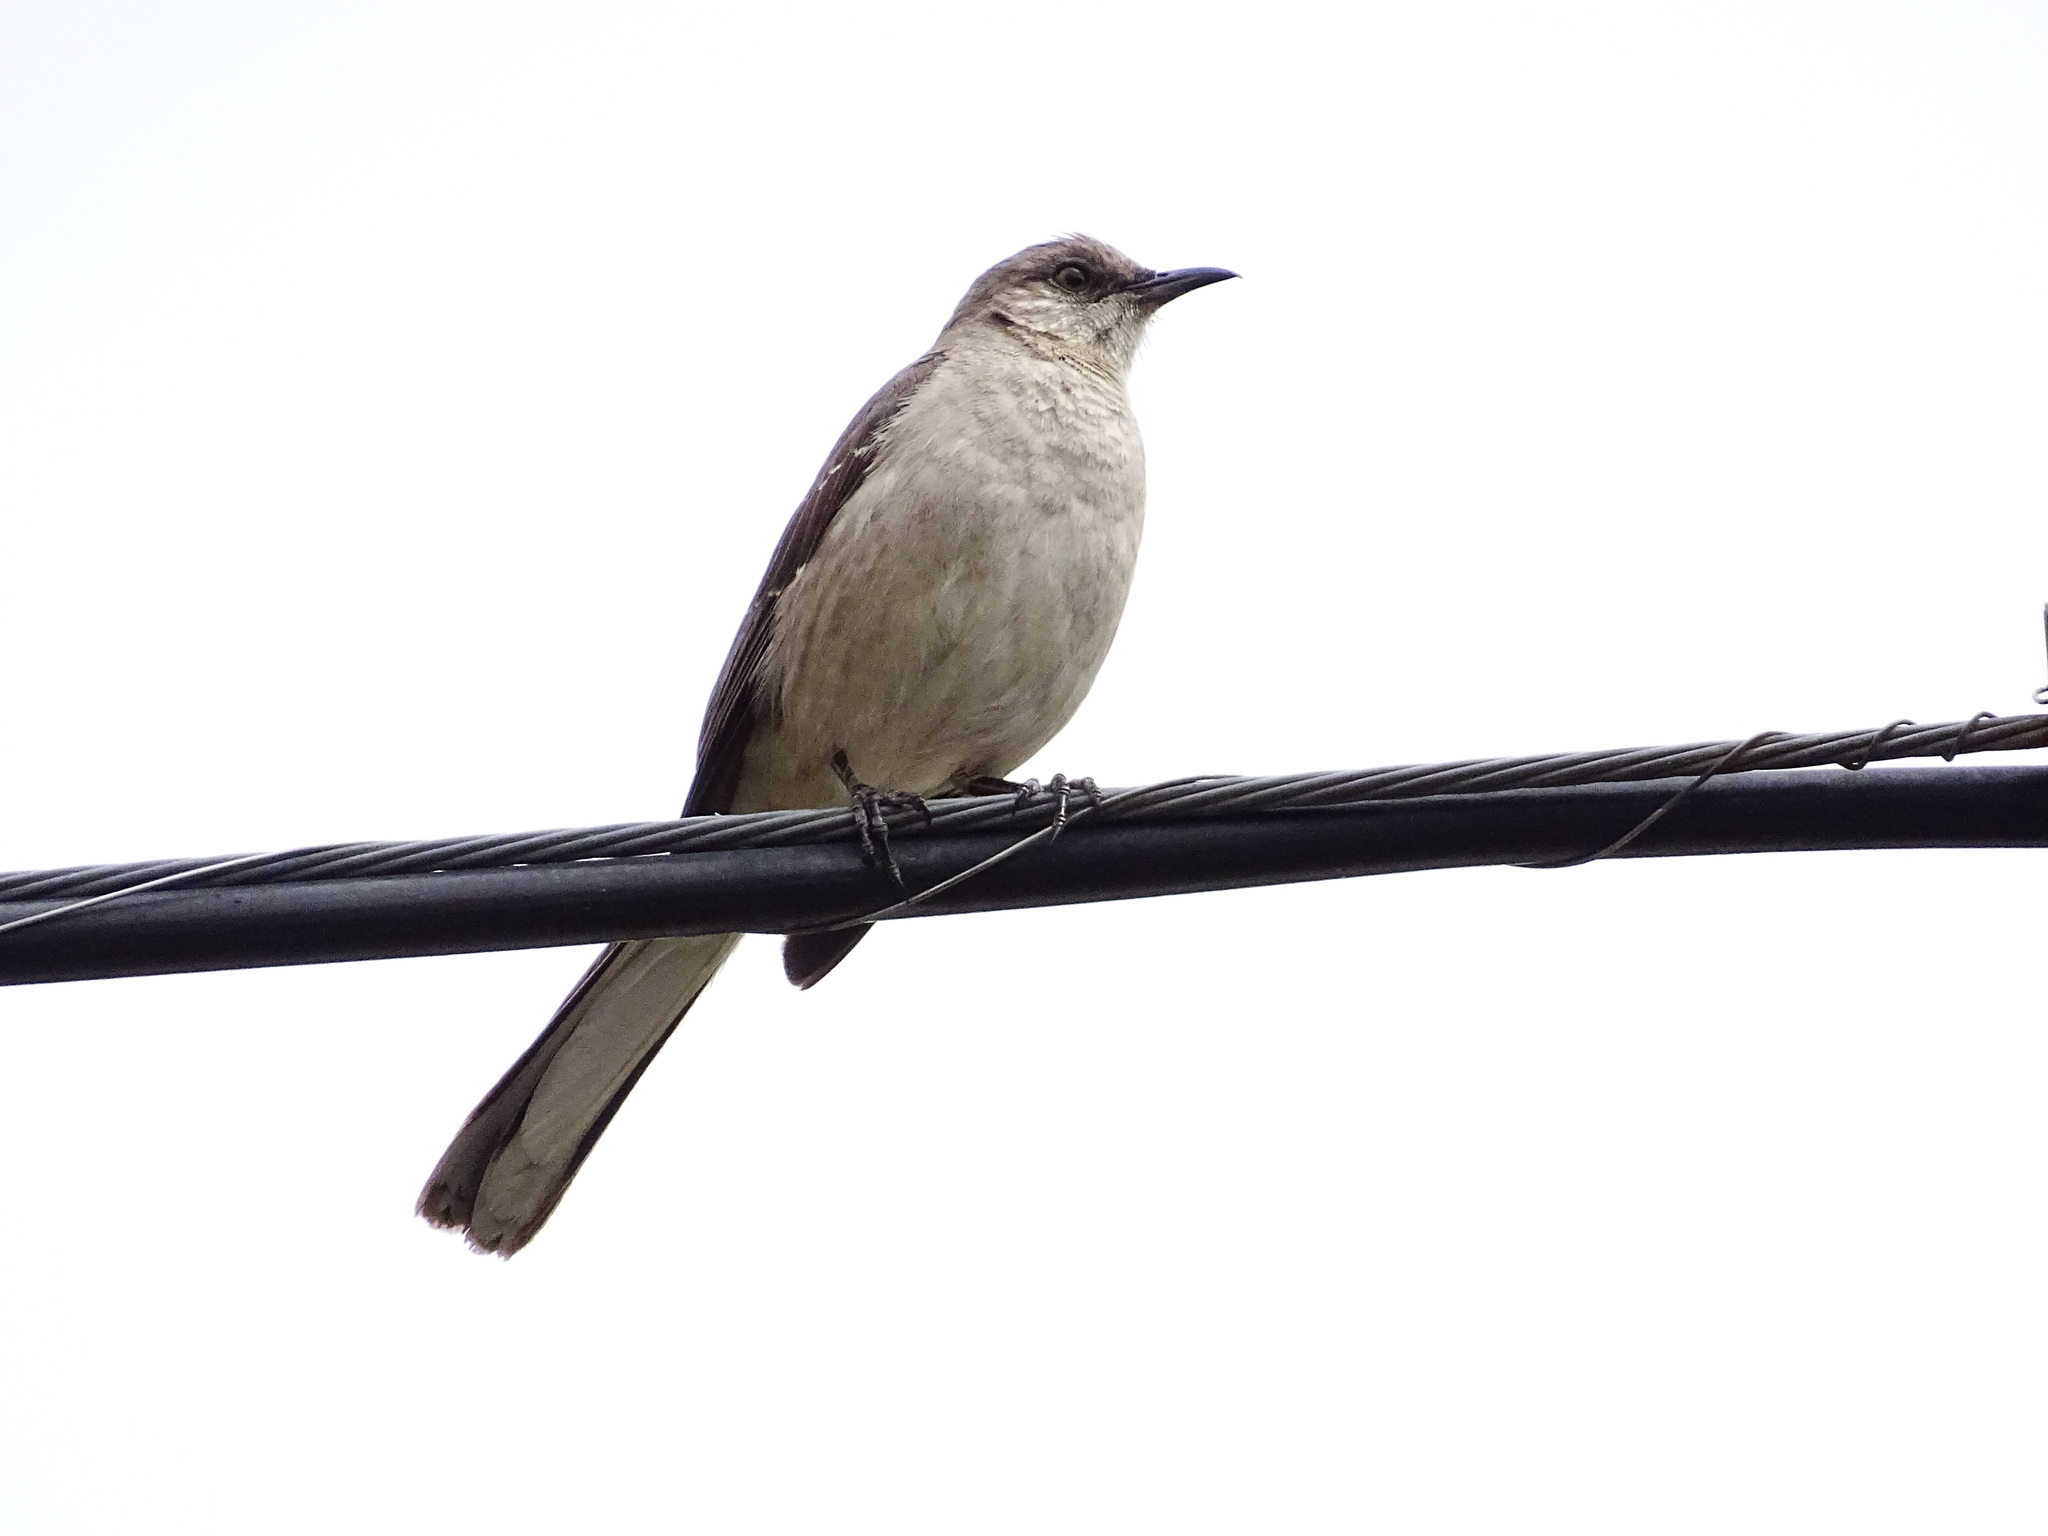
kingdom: Animalia
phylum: Chordata
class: Aves
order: Passeriformes
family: Mimidae
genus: Mimus
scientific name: Mimus polyglottos
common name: Northern mockingbird
